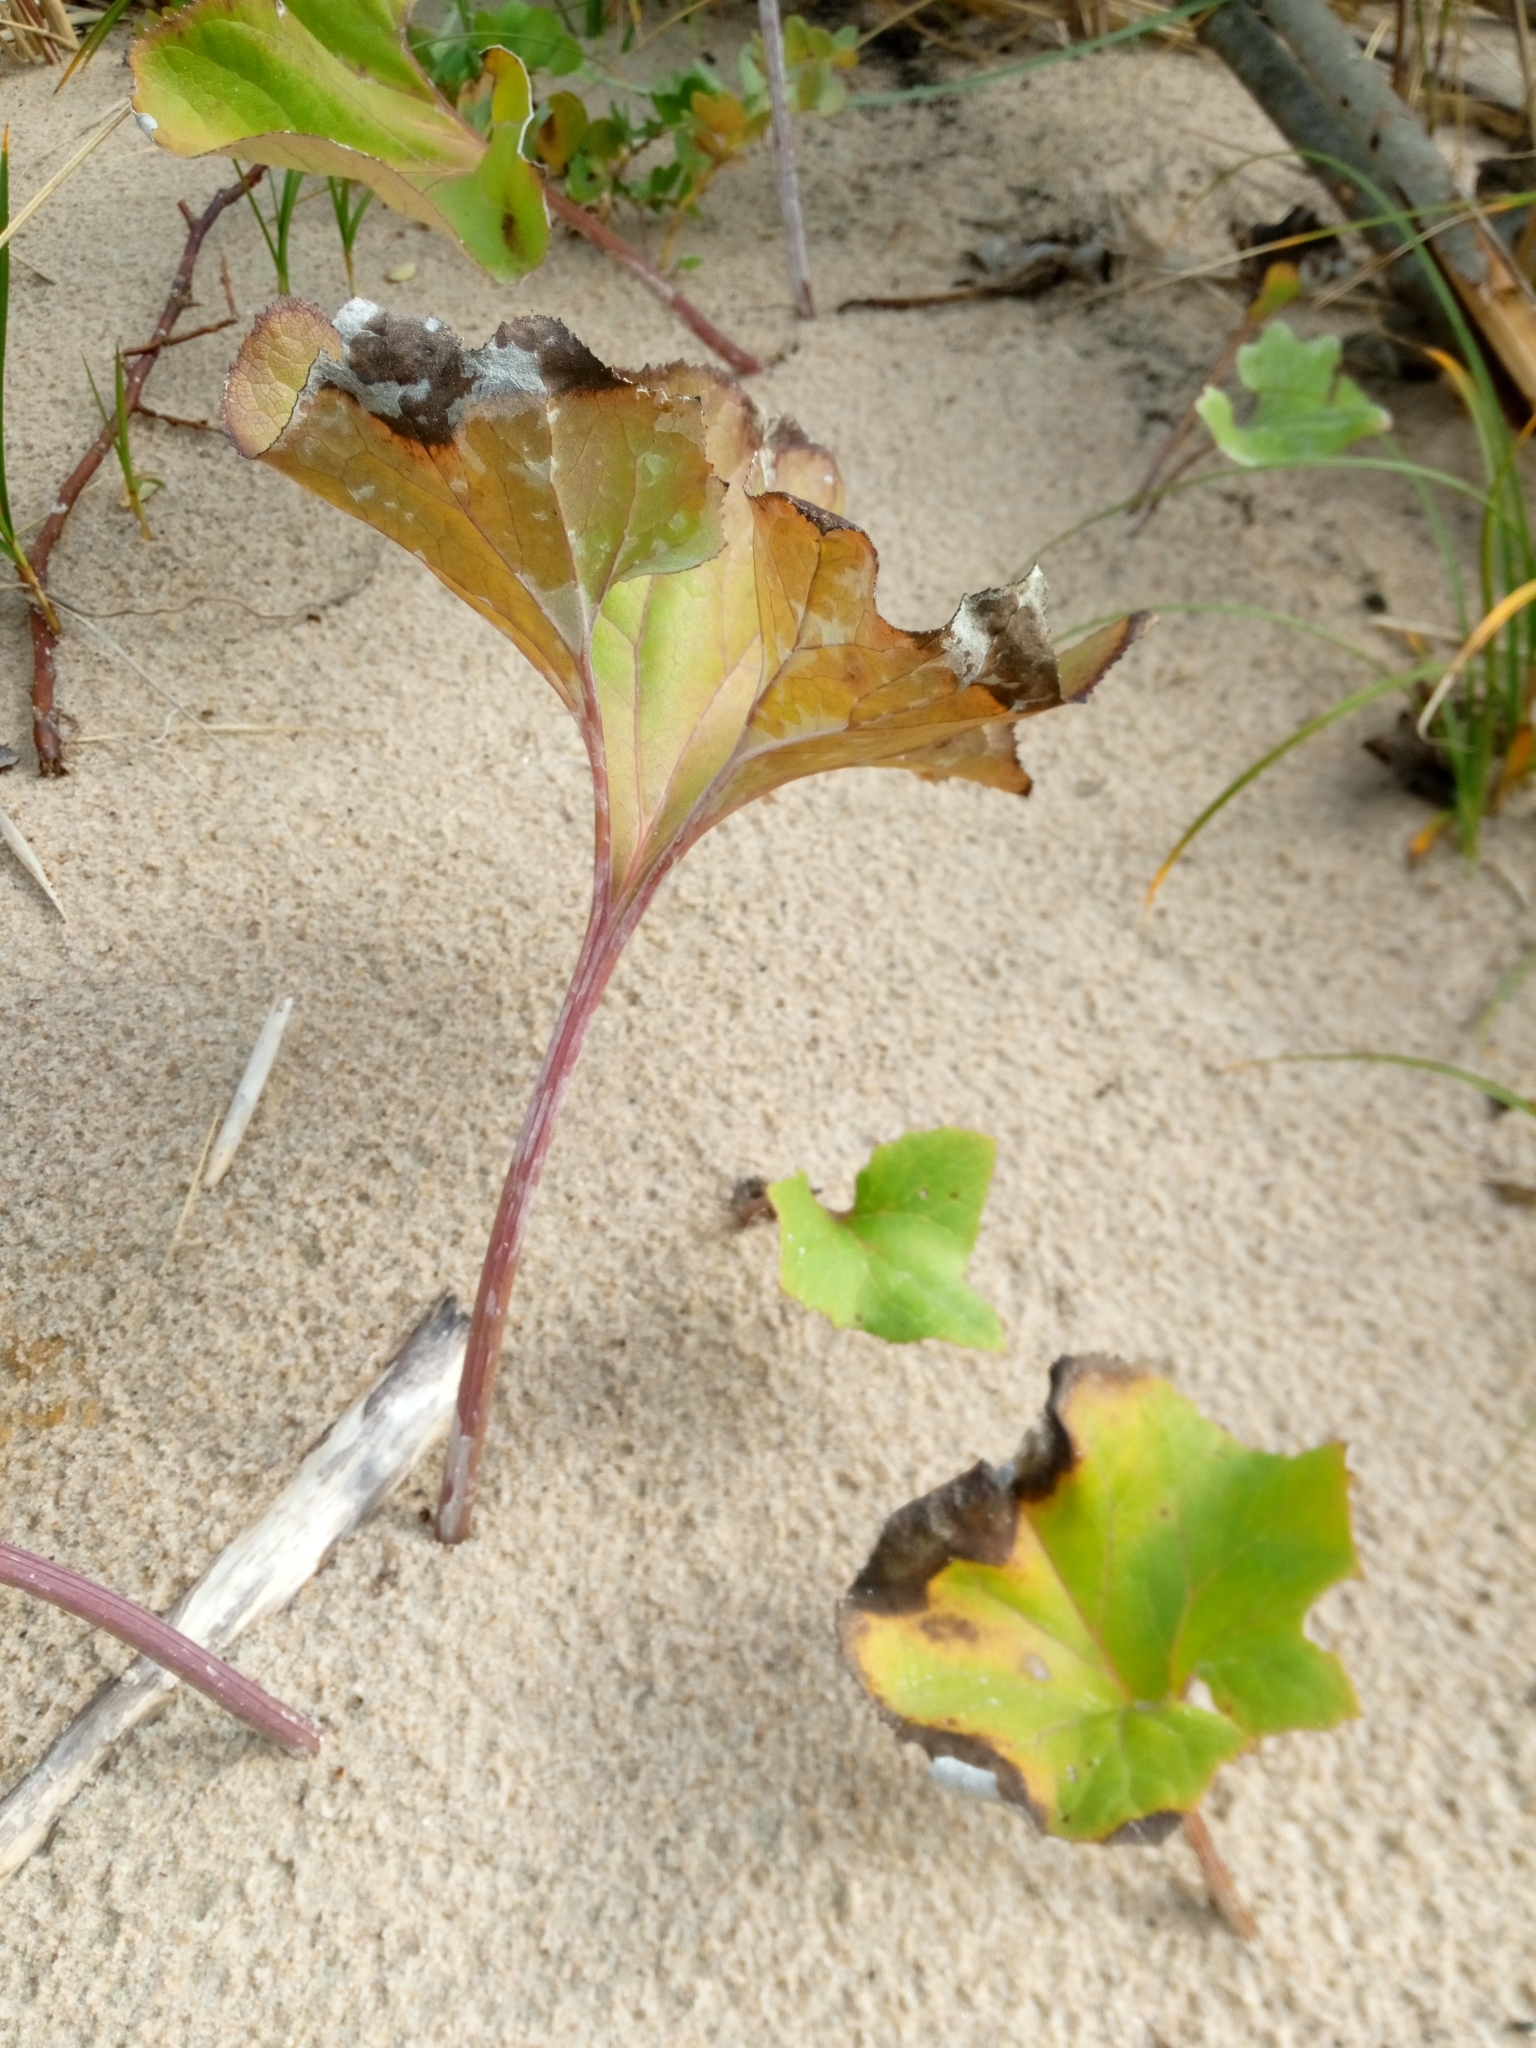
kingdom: Plantae
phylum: Tracheophyta
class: Magnoliopsida
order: Asterales
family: Asteraceae
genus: Petasites
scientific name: Petasites spurius
